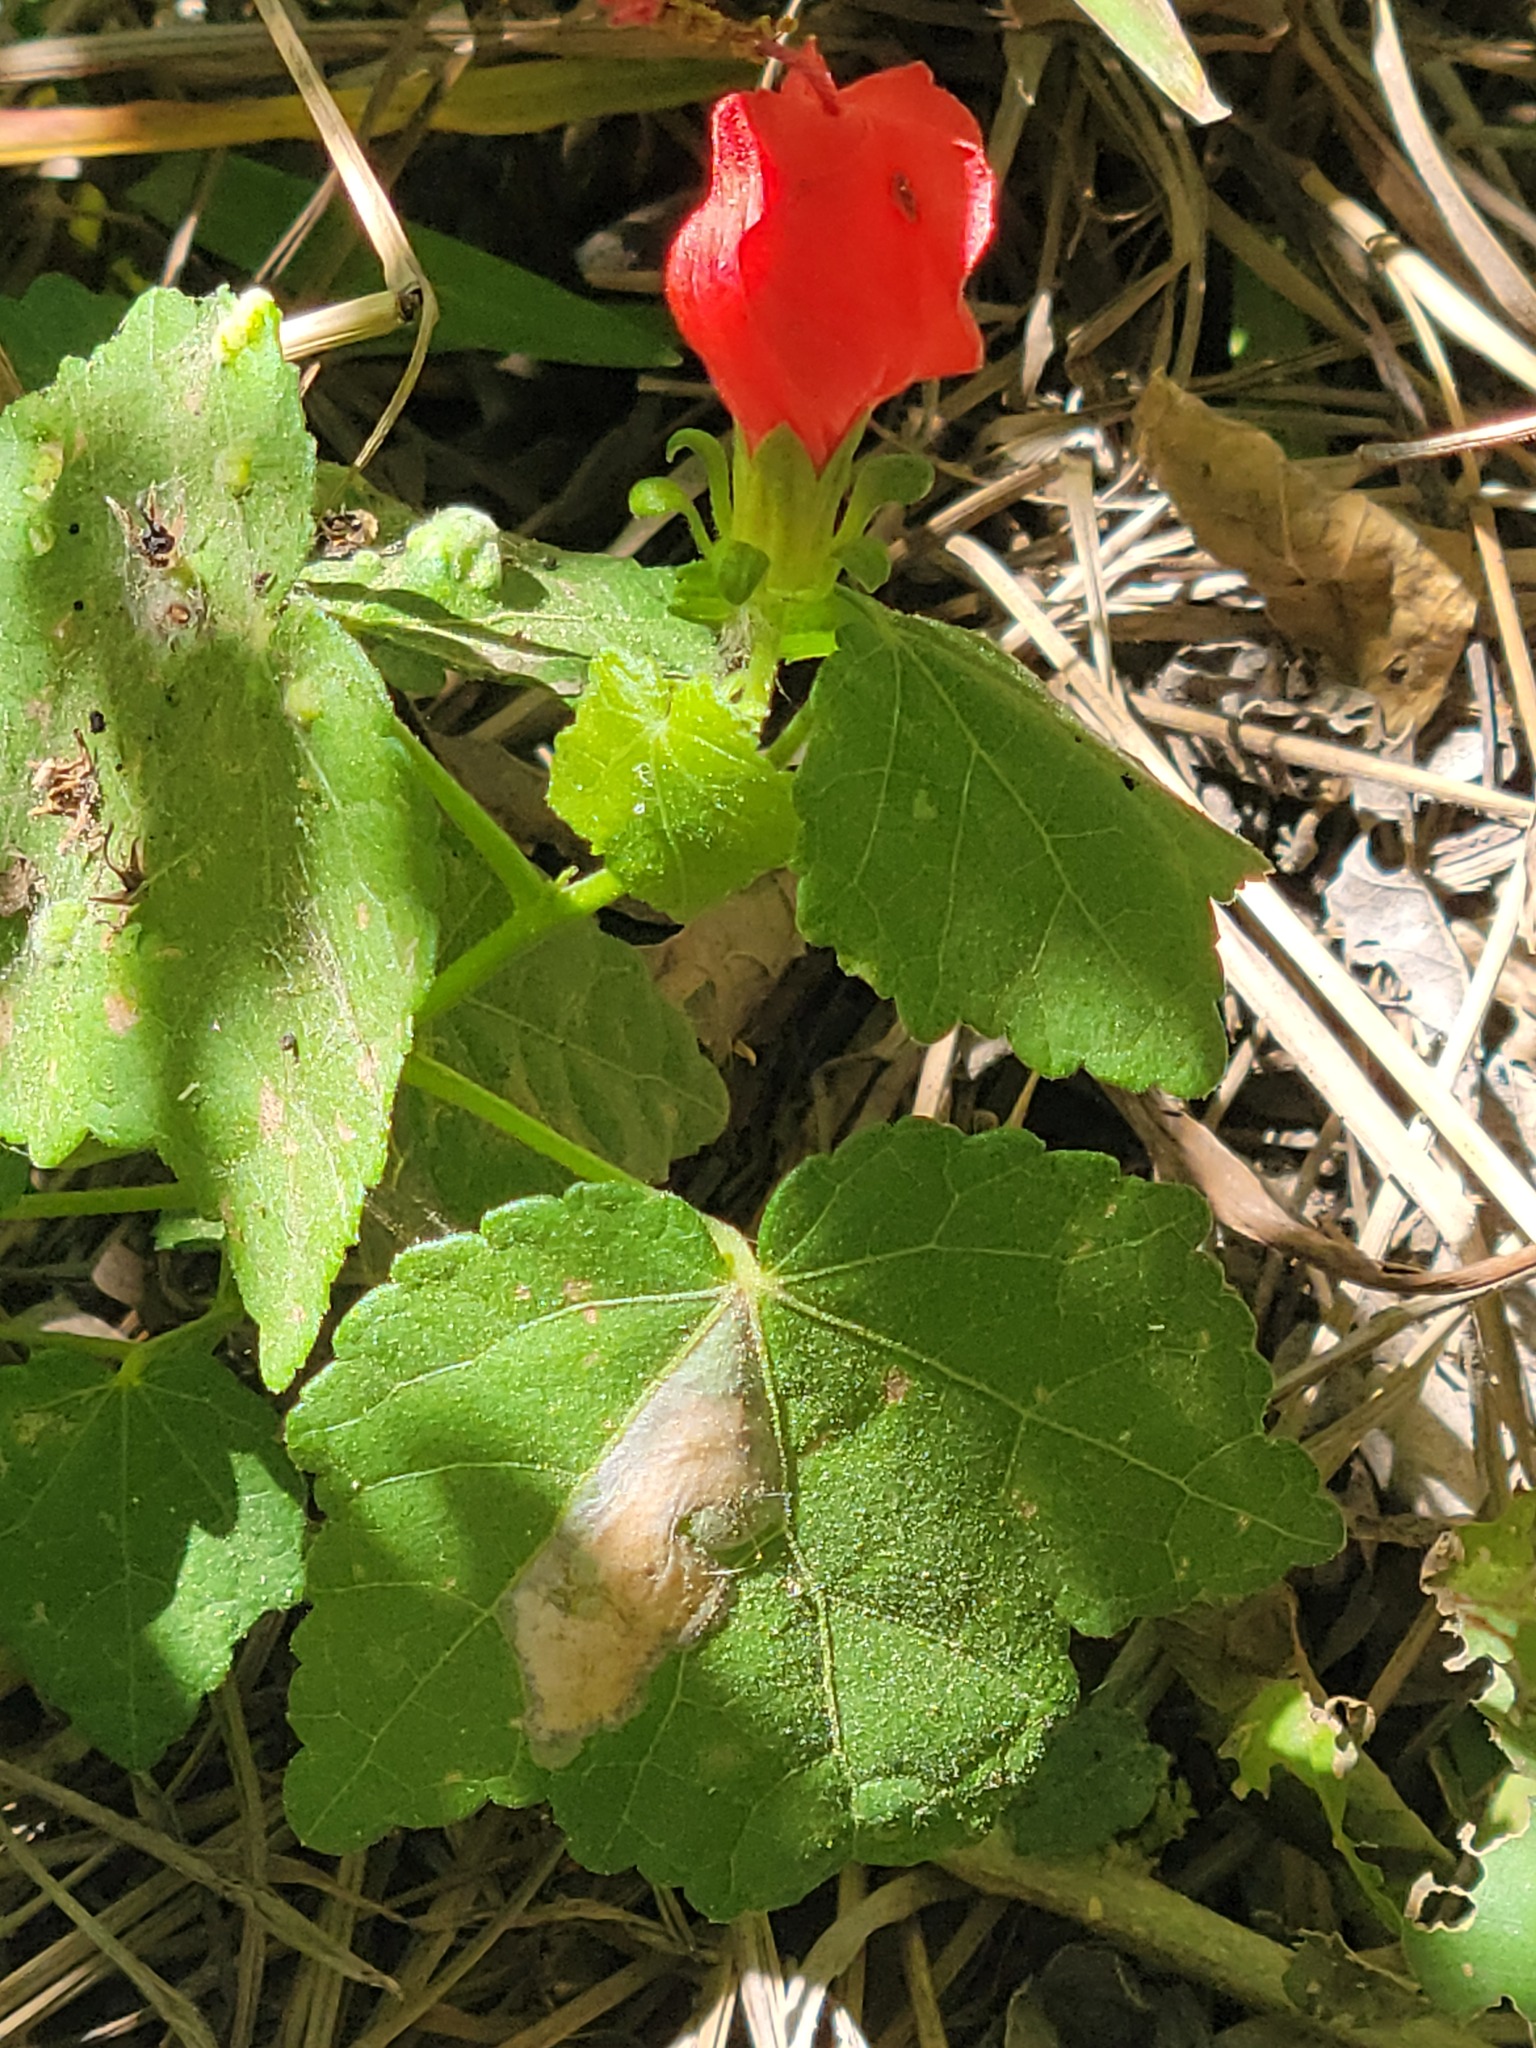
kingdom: Plantae
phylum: Tracheophyta
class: Magnoliopsida
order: Malvales
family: Malvaceae
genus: Malvaviscus
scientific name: Malvaviscus arboreus
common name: Wax mallow
